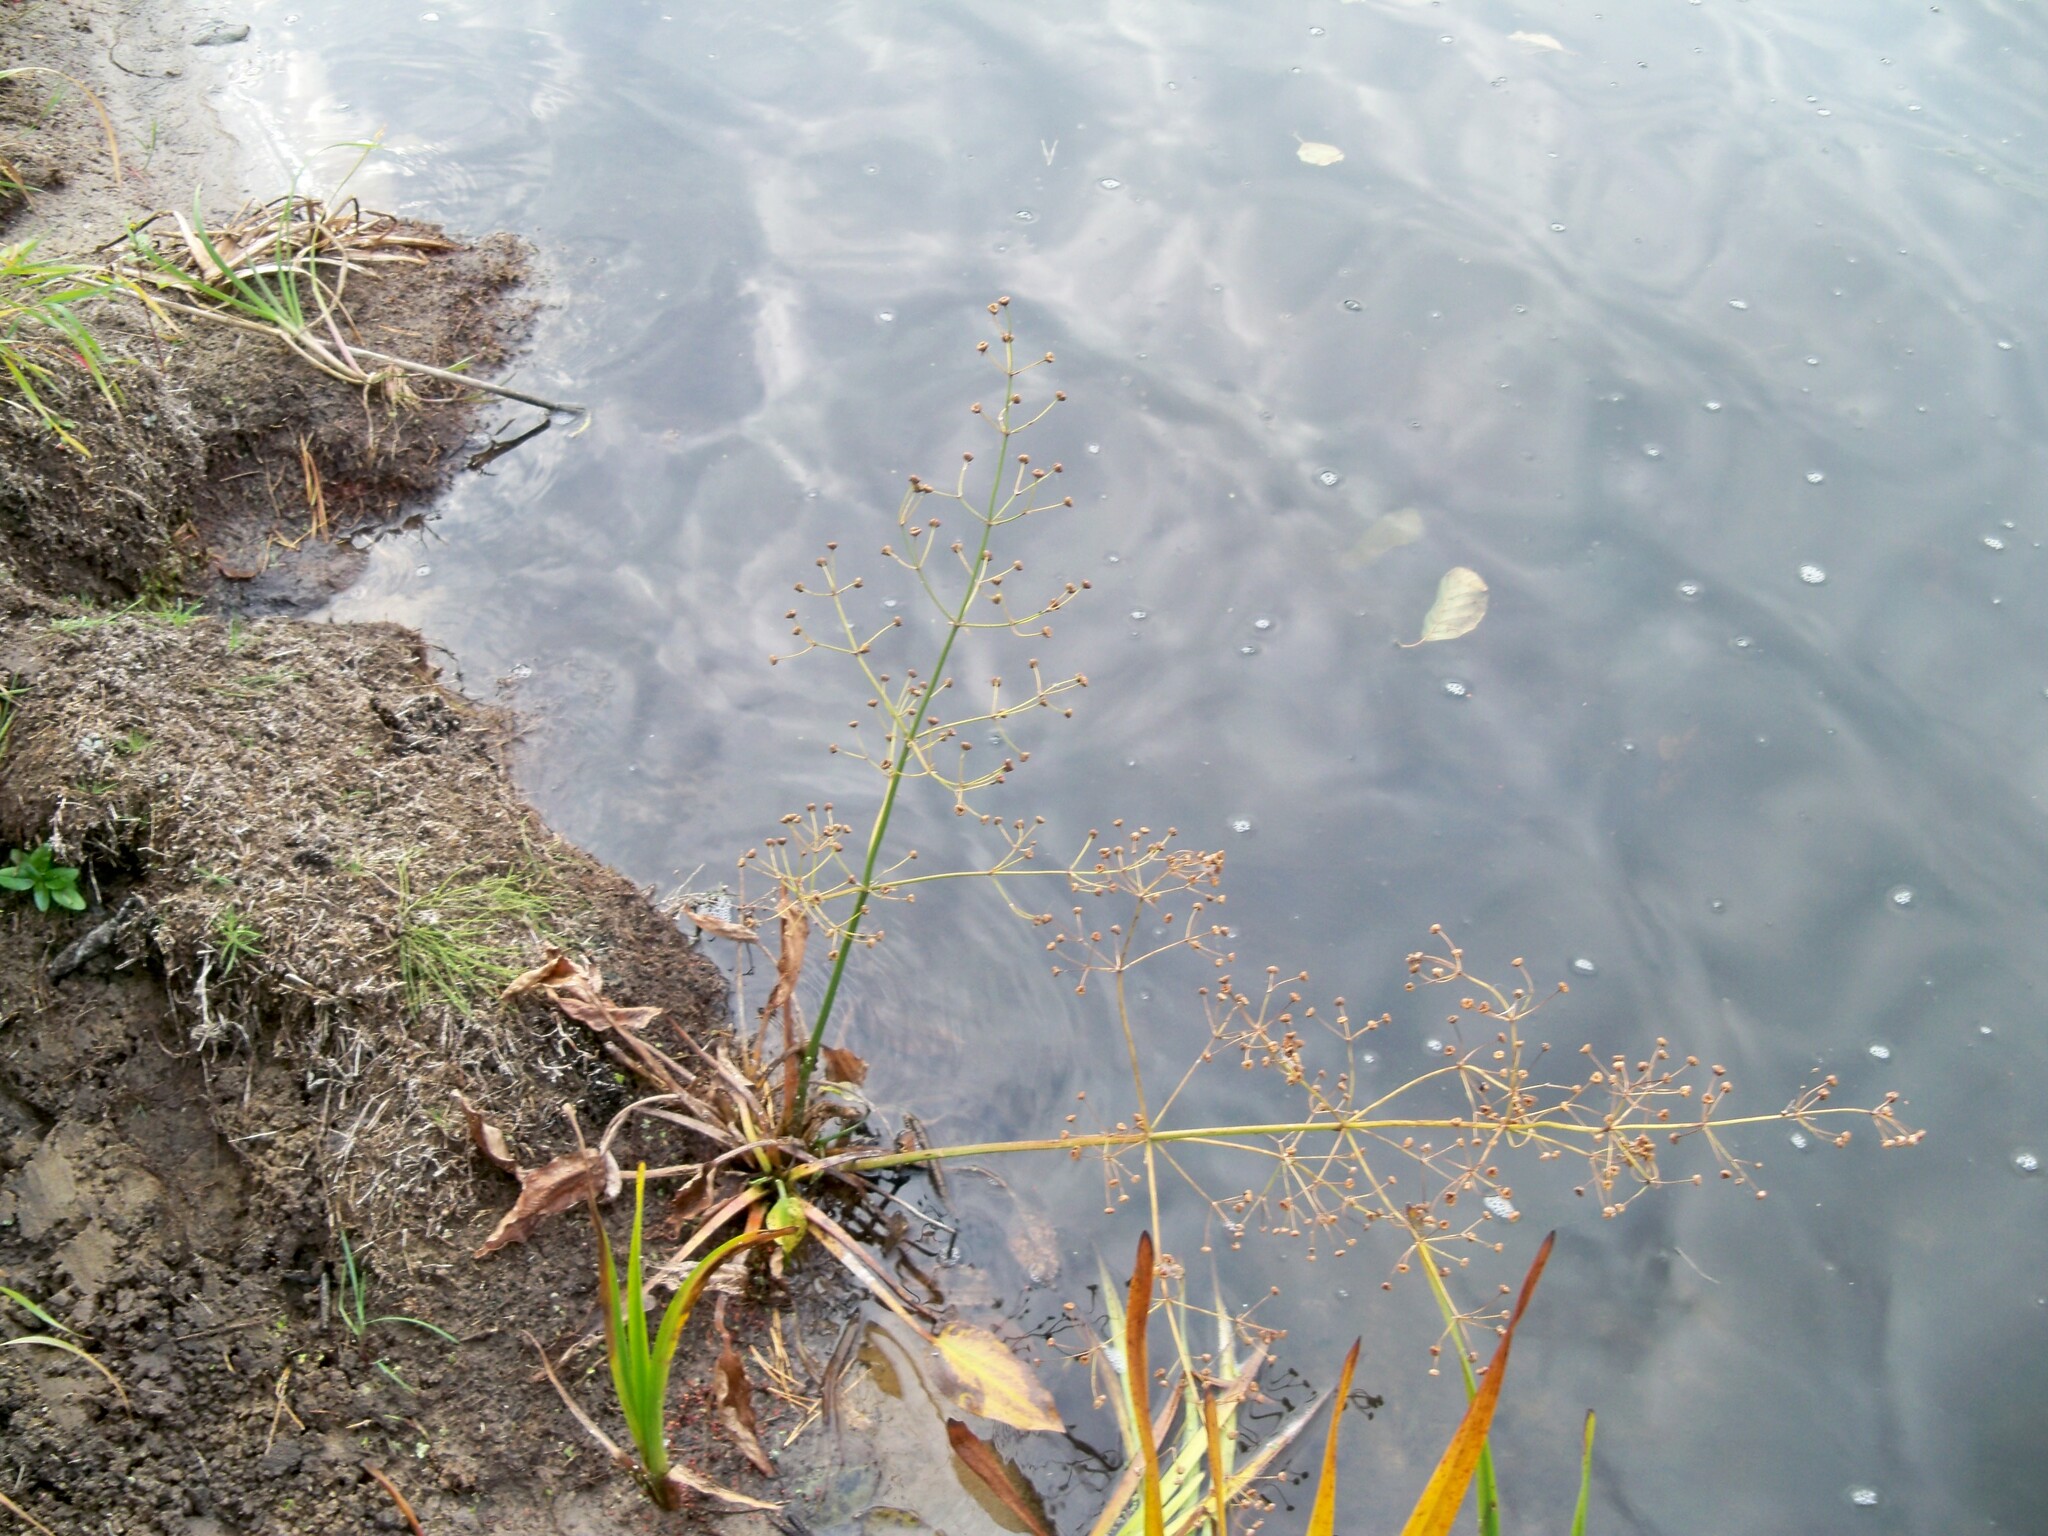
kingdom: Plantae
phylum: Tracheophyta
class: Liliopsida
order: Alismatales
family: Alismataceae
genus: Alisma
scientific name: Alisma plantago-aquatica
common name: Water-plantain
